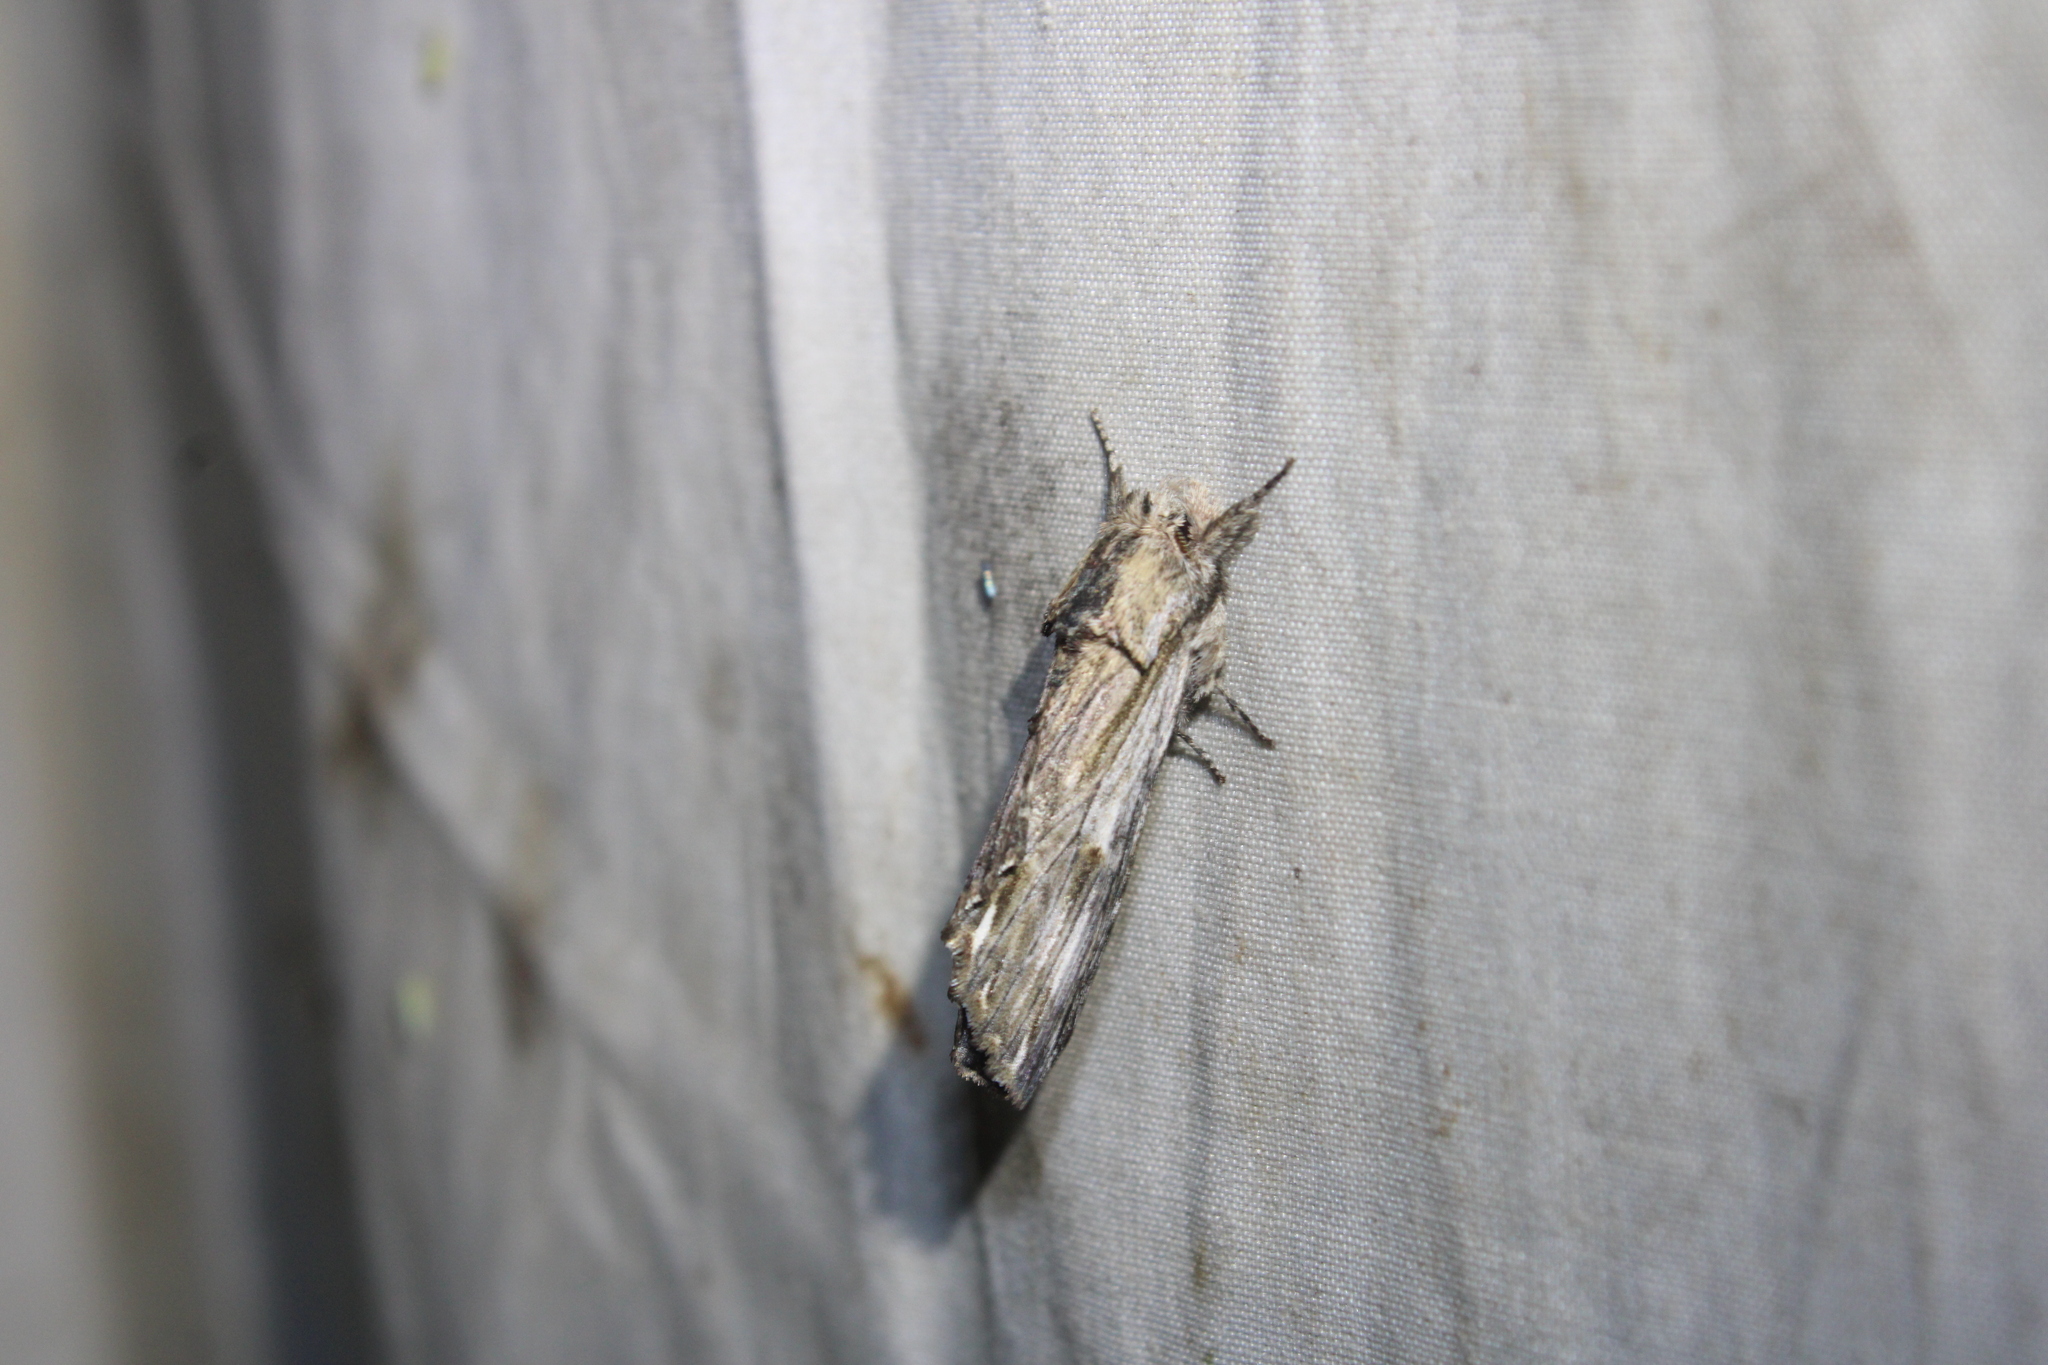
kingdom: Animalia
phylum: Arthropoda
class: Insecta
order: Lepidoptera
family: Notodontidae
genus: Oligocentria
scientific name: Oligocentria Ianassa lignicolor
